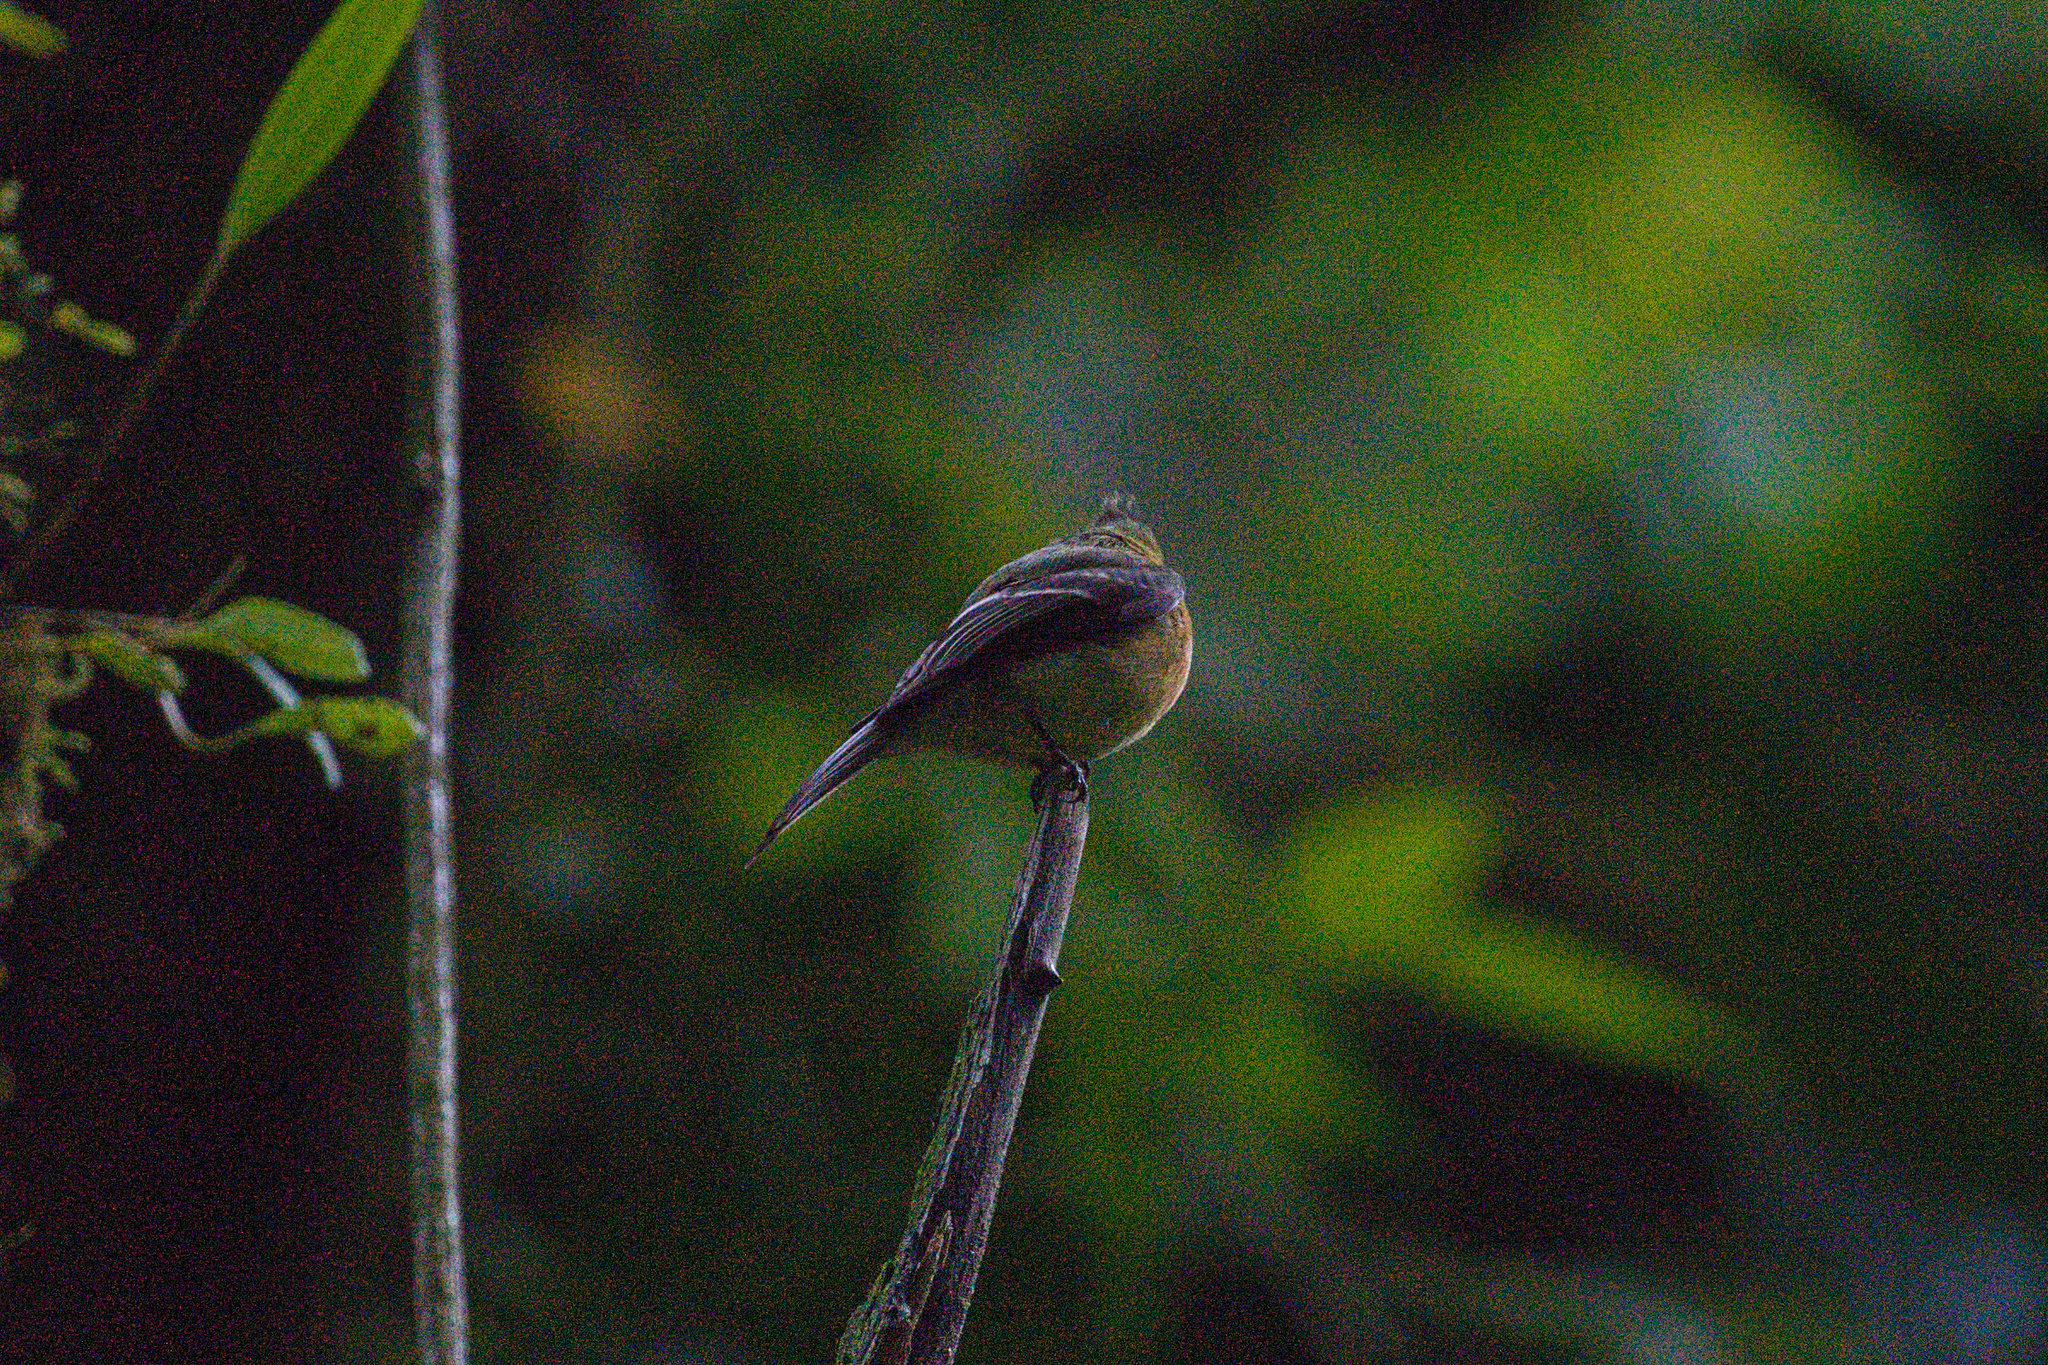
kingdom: Animalia
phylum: Chordata
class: Aves
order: Passeriformes
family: Tyrannidae
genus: Mitrephanes
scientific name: Mitrephanes phaeocercus
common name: Northern tufted flycatcher
